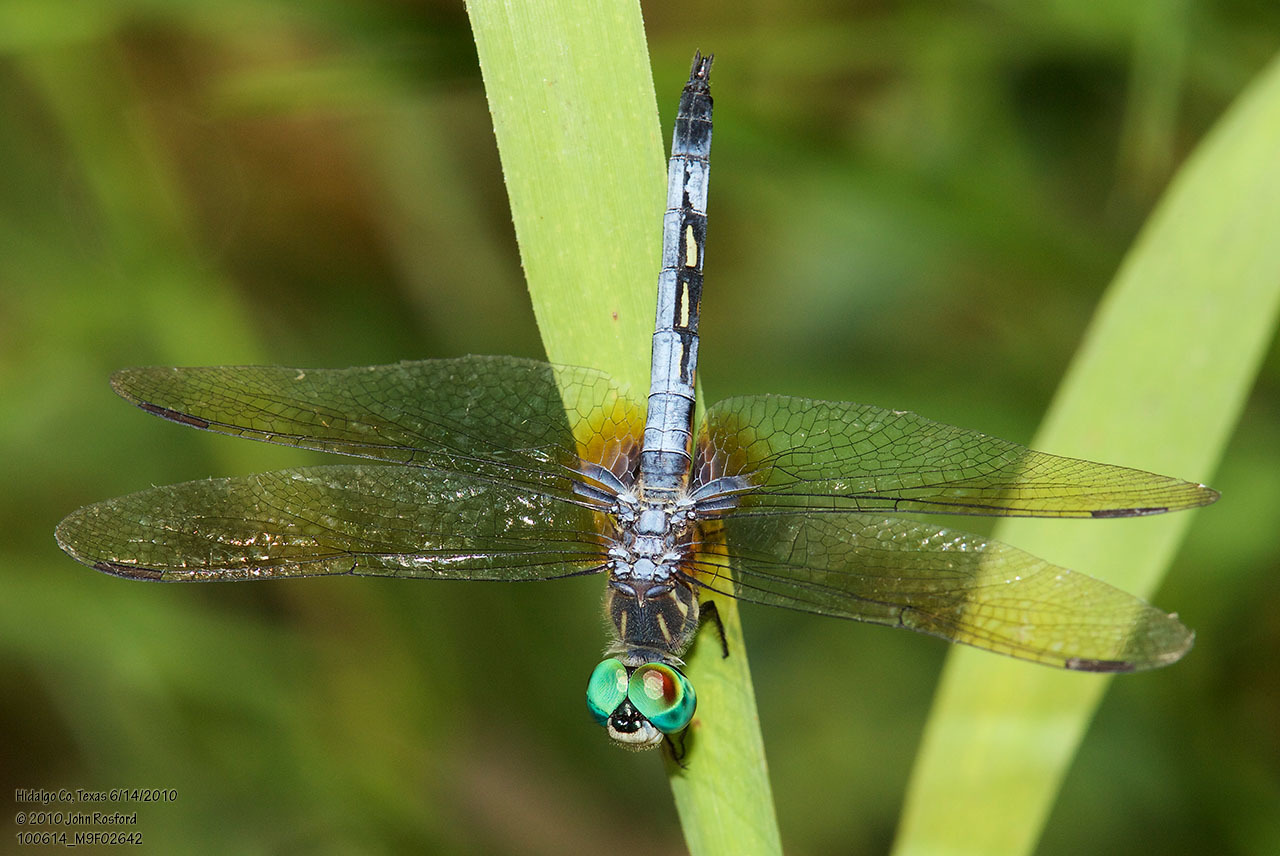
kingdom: Animalia
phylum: Arthropoda
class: Insecta
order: Odonata
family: Libellulidae
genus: Pachydiplax
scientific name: Pachydiplax longipennis
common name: Blue dasher
